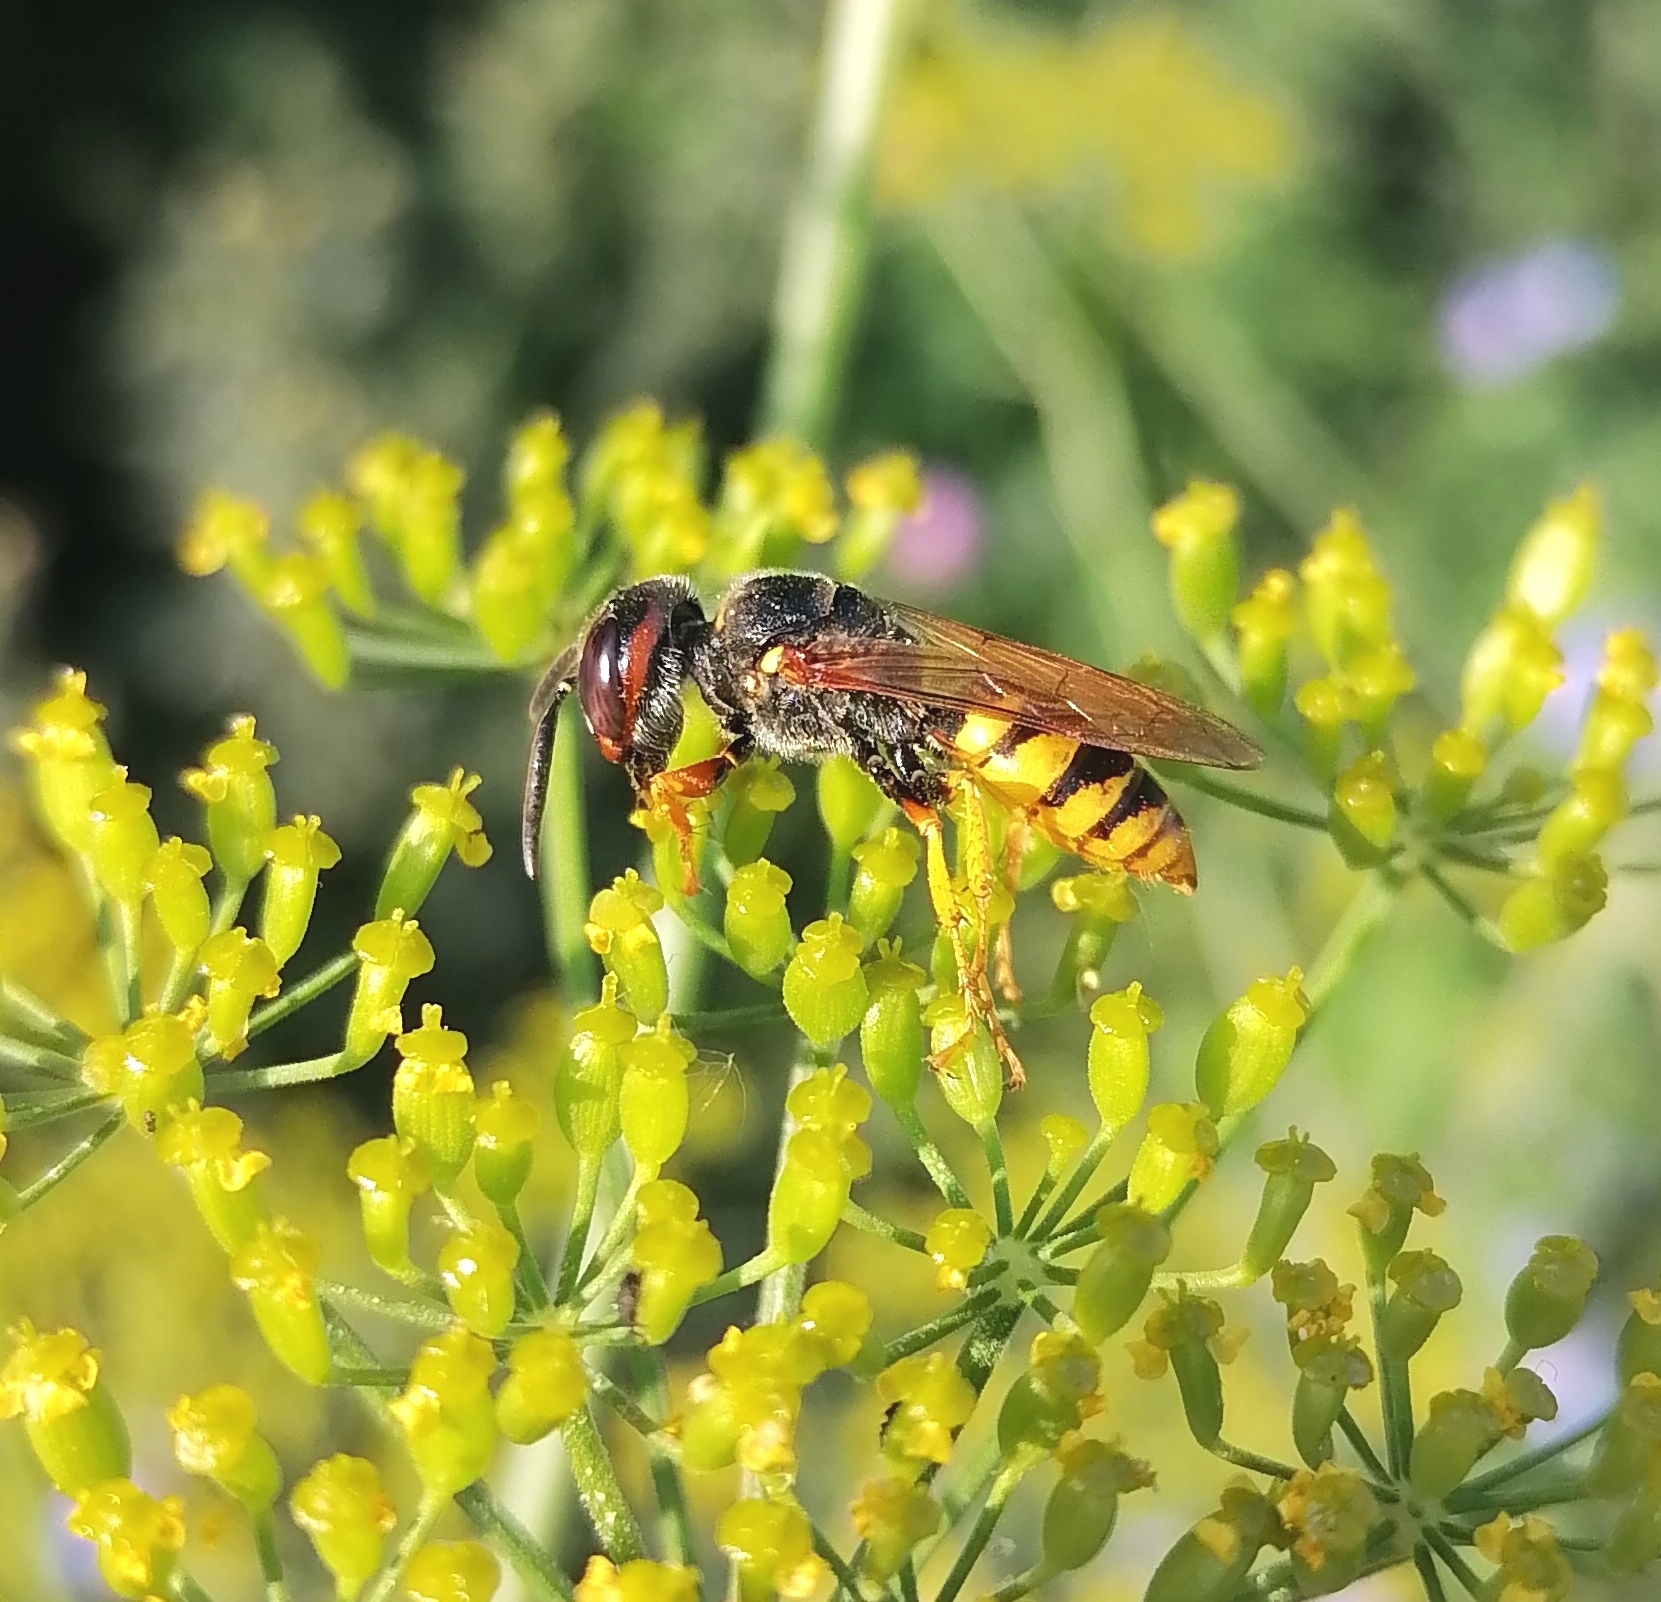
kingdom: Animalia
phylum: Arthropoda
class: Insecta
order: Hymenoptera
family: Crabronidae
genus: Philanthus
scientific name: Philanthus triangulum
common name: Bee wolf
